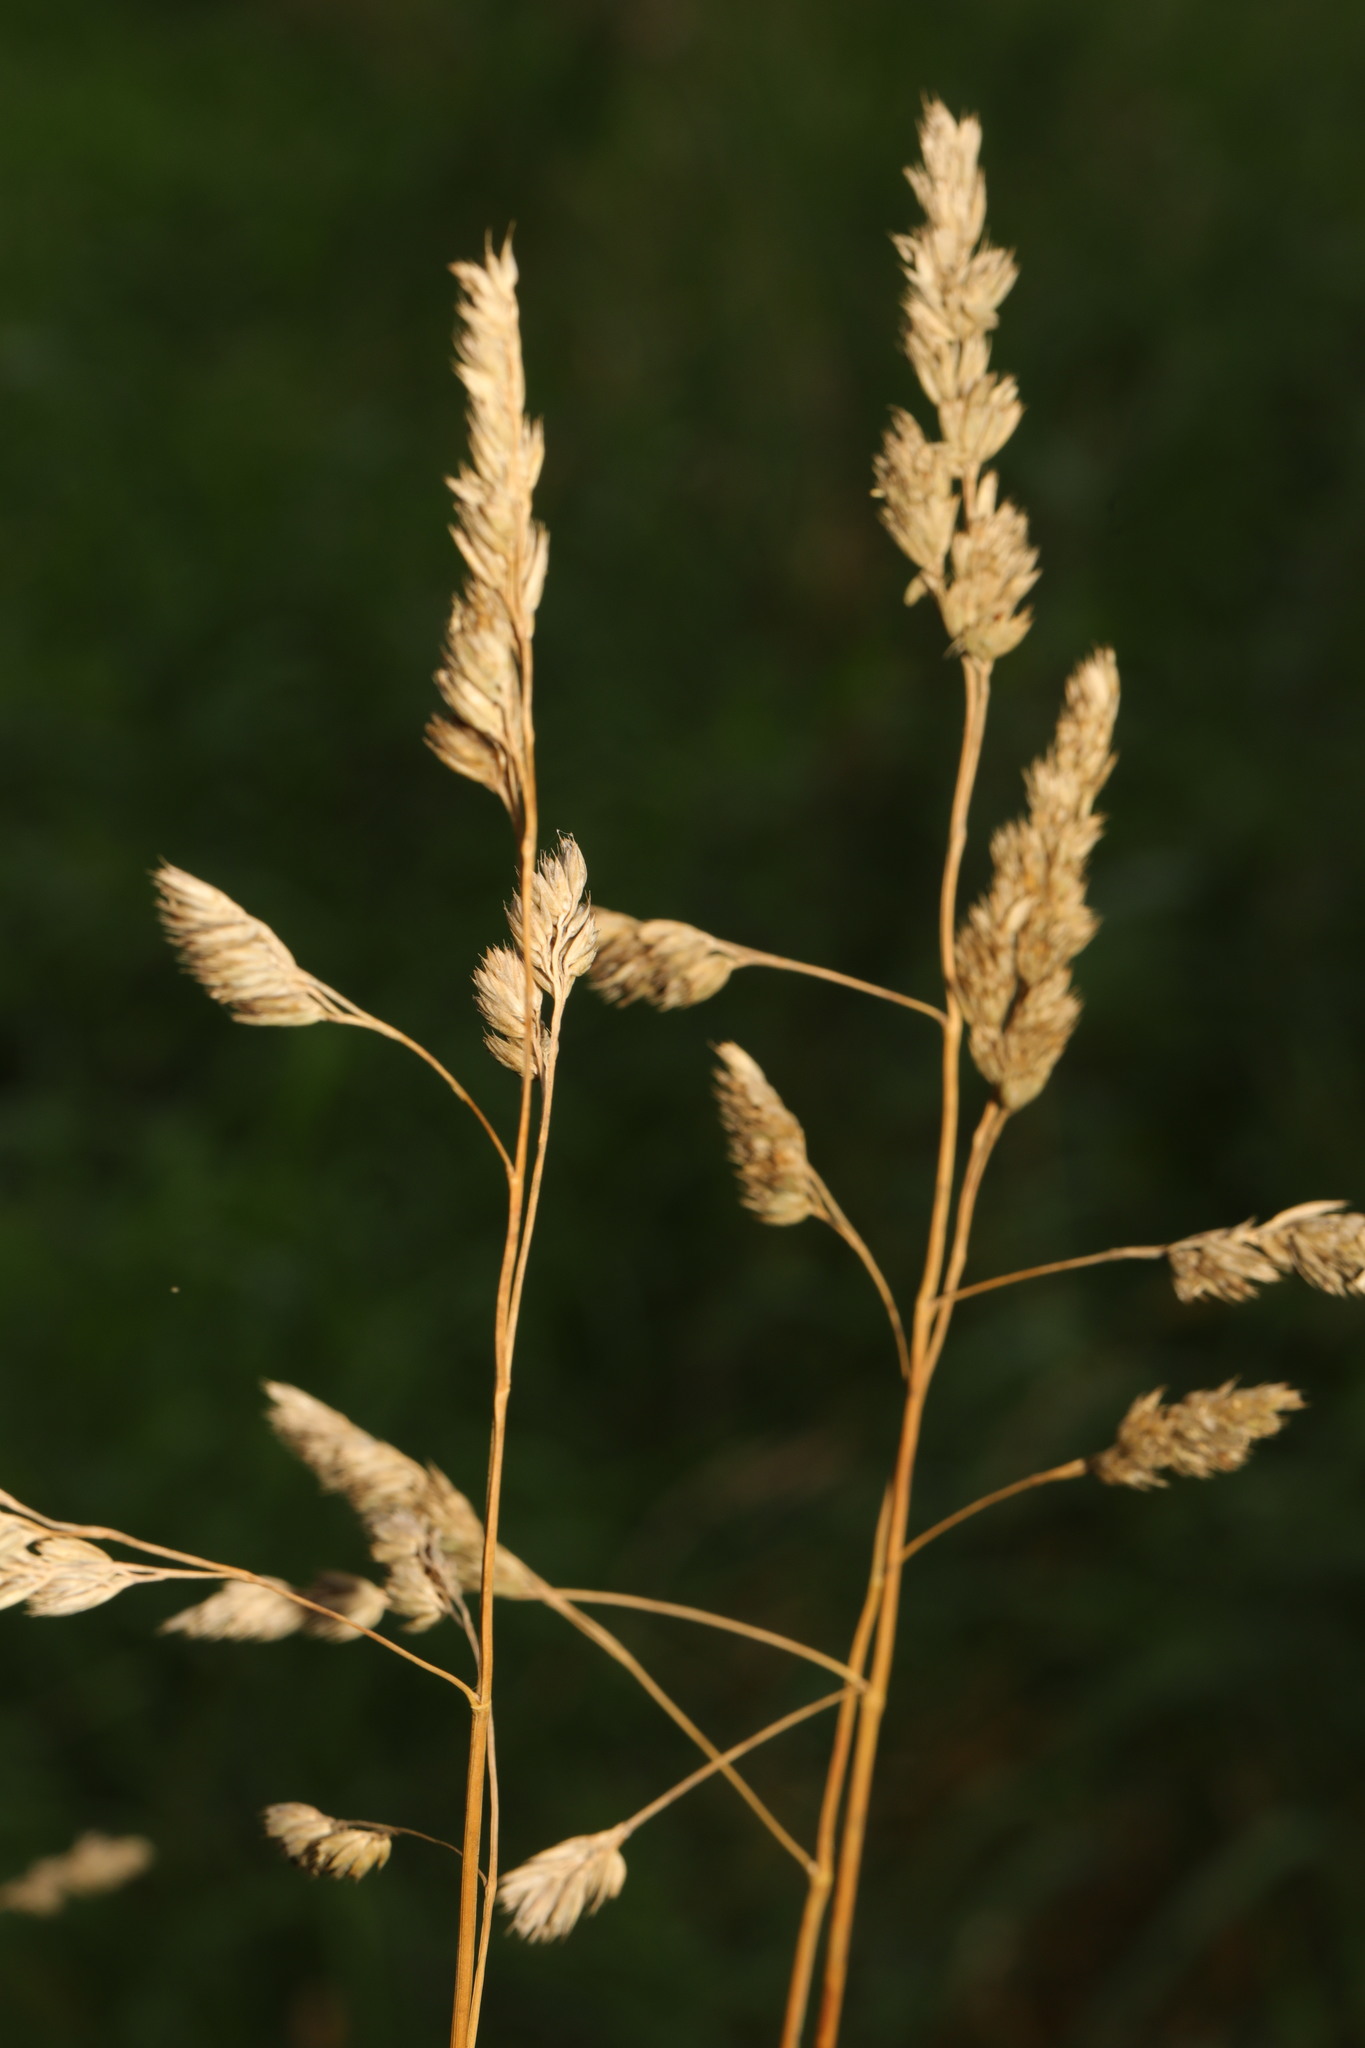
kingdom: Plantae
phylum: Tracheophyta
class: Liliopsida
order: Poales
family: Poaceae
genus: Dactylis
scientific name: Dactylis glomerata
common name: Orchardgrass
